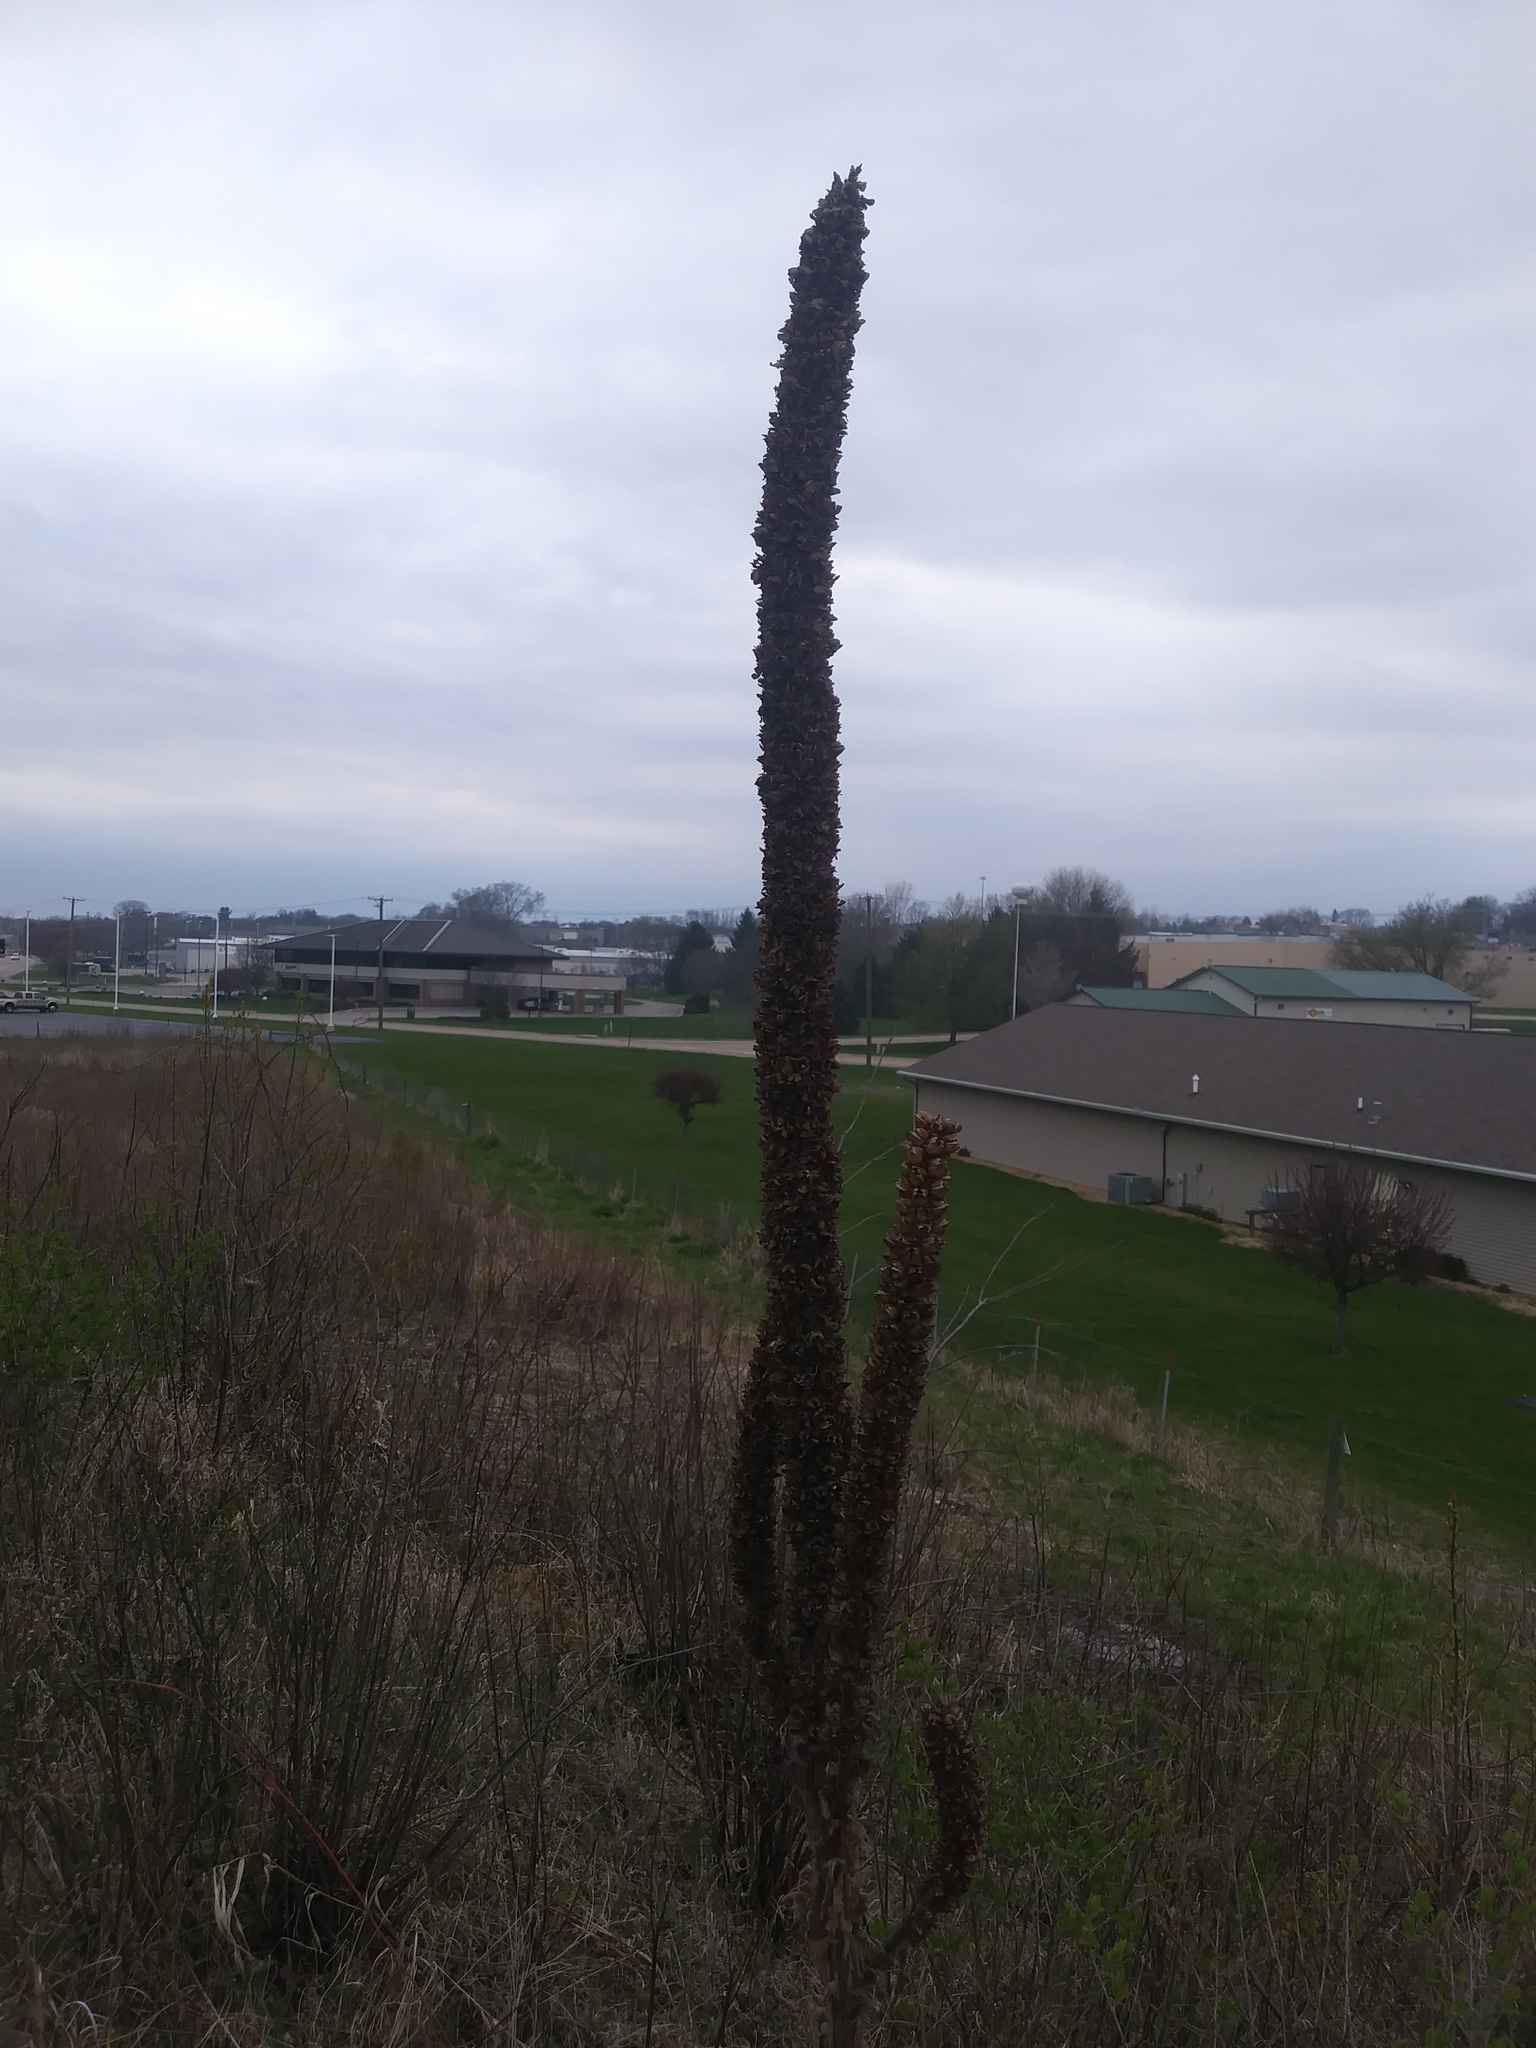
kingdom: Plantae
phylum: Tracheophyta
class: Magnoliopsida
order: Lamiales
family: Scrophulariaceae
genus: Verbascum
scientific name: Verbascum thapsus
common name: Common mullein
